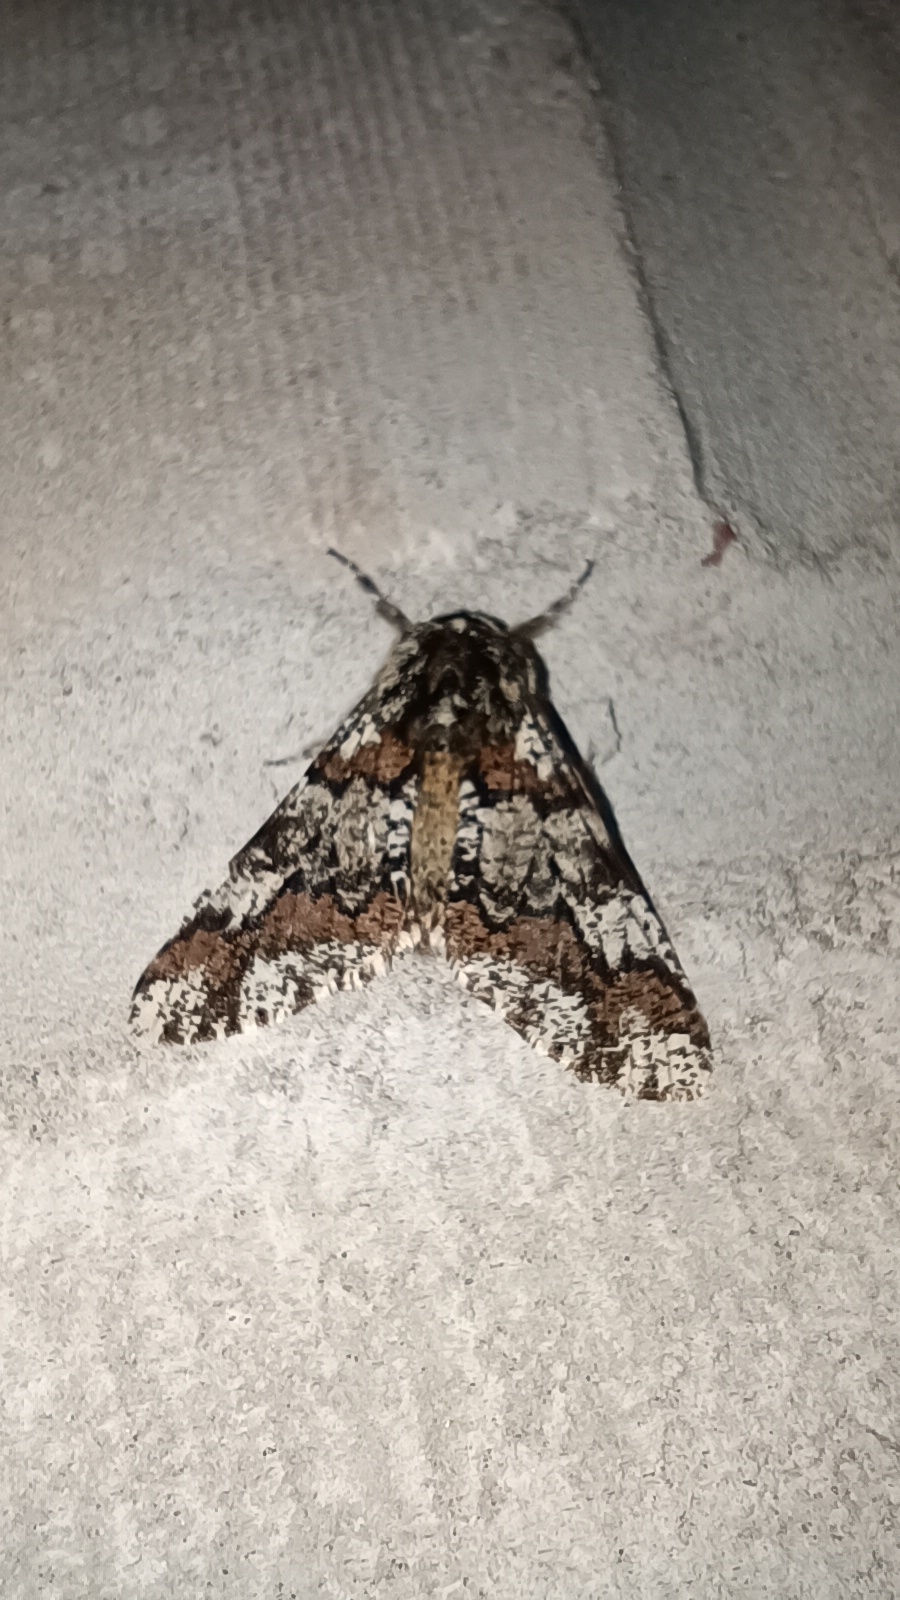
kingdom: Animalia
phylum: Arthropoda
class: Insecta
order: Lepidoptera
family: Geometridae
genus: Biston
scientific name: Biston strataria
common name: Oak beauty
